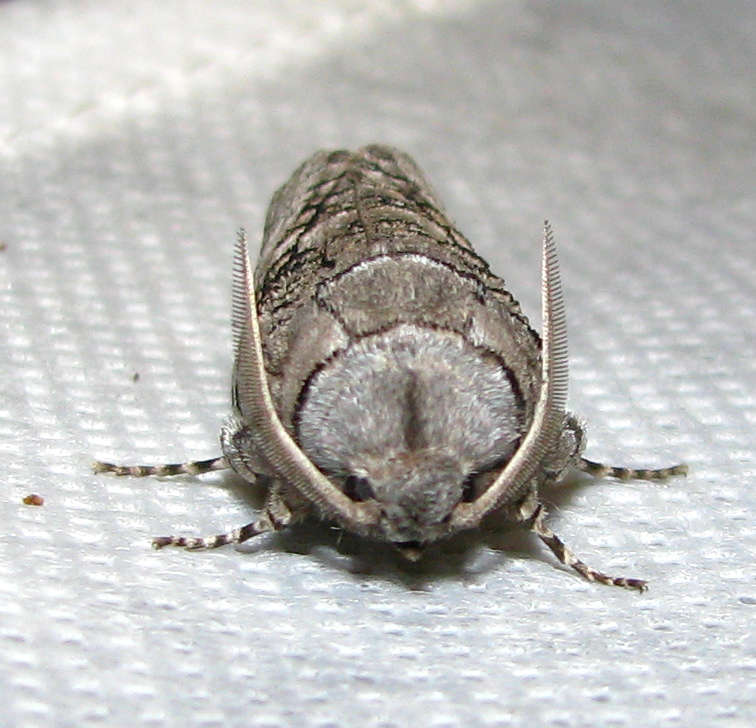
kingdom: Animalia
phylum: Arthropoda
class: Insecta
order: Lepidoptera
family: Cossidae
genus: Culama
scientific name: Culama australis
